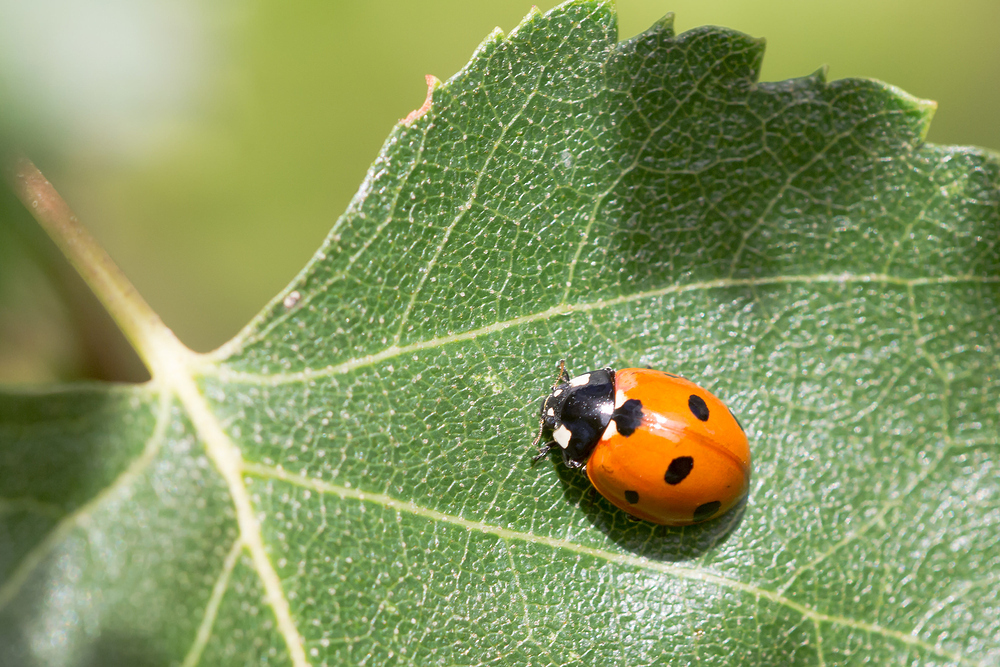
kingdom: Animalia
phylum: Arthropoda
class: Insecta
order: Coleoptera
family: Coccinellidae
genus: Coccinella
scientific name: Coccinella septempunctata
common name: Sevenspotted lady beetle
